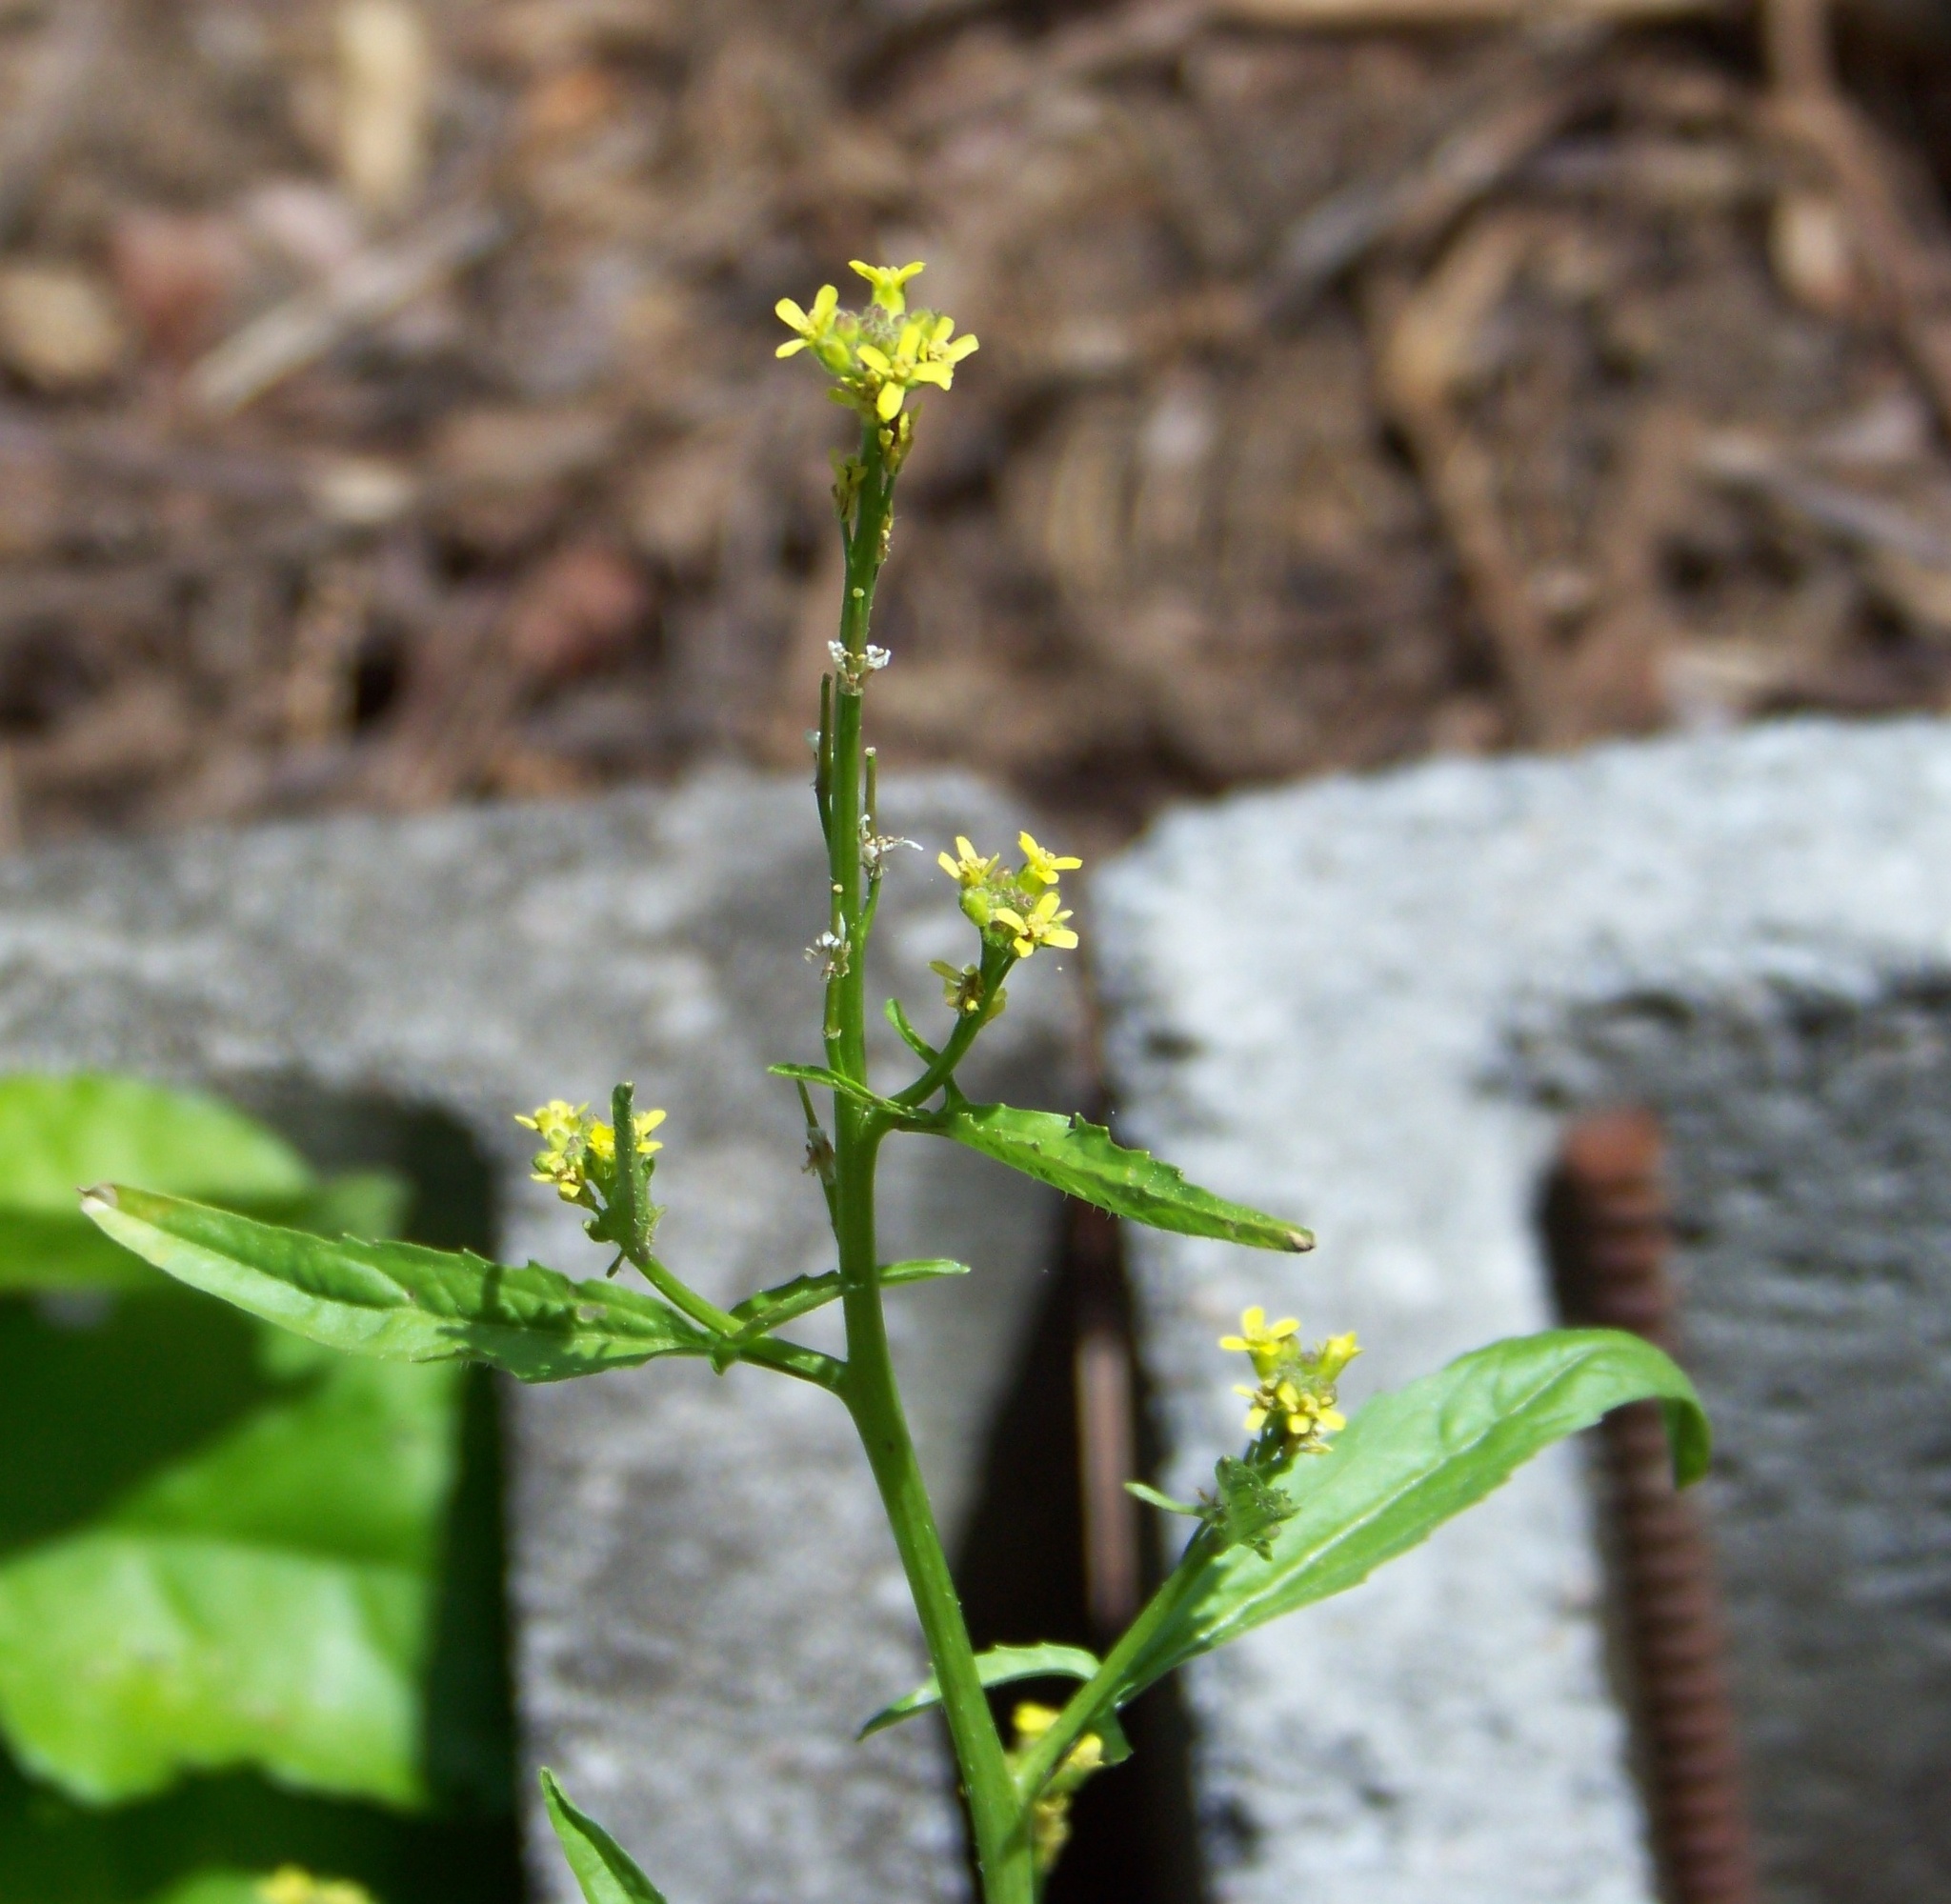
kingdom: Plantae
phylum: Tracheophyta
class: Magnoliopsida
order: Brassicales
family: Brassicaceae
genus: Sisymbrium
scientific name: Sisymbrium officinale
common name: Hedge mustard
